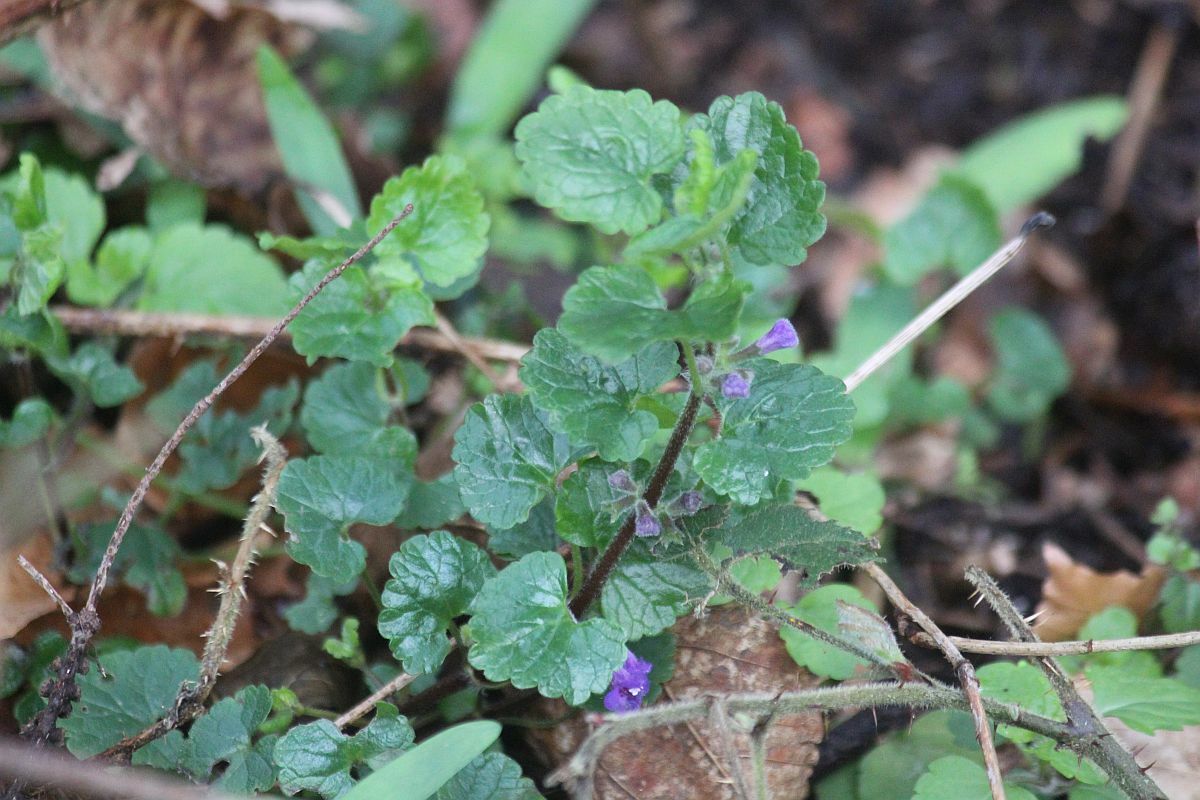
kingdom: Plantae
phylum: Tracheophyta
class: Magnoliopsida
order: Lamiales
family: Lamiaceae
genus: Glechoma
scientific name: Glechoma hederacea
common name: Ground ivy
